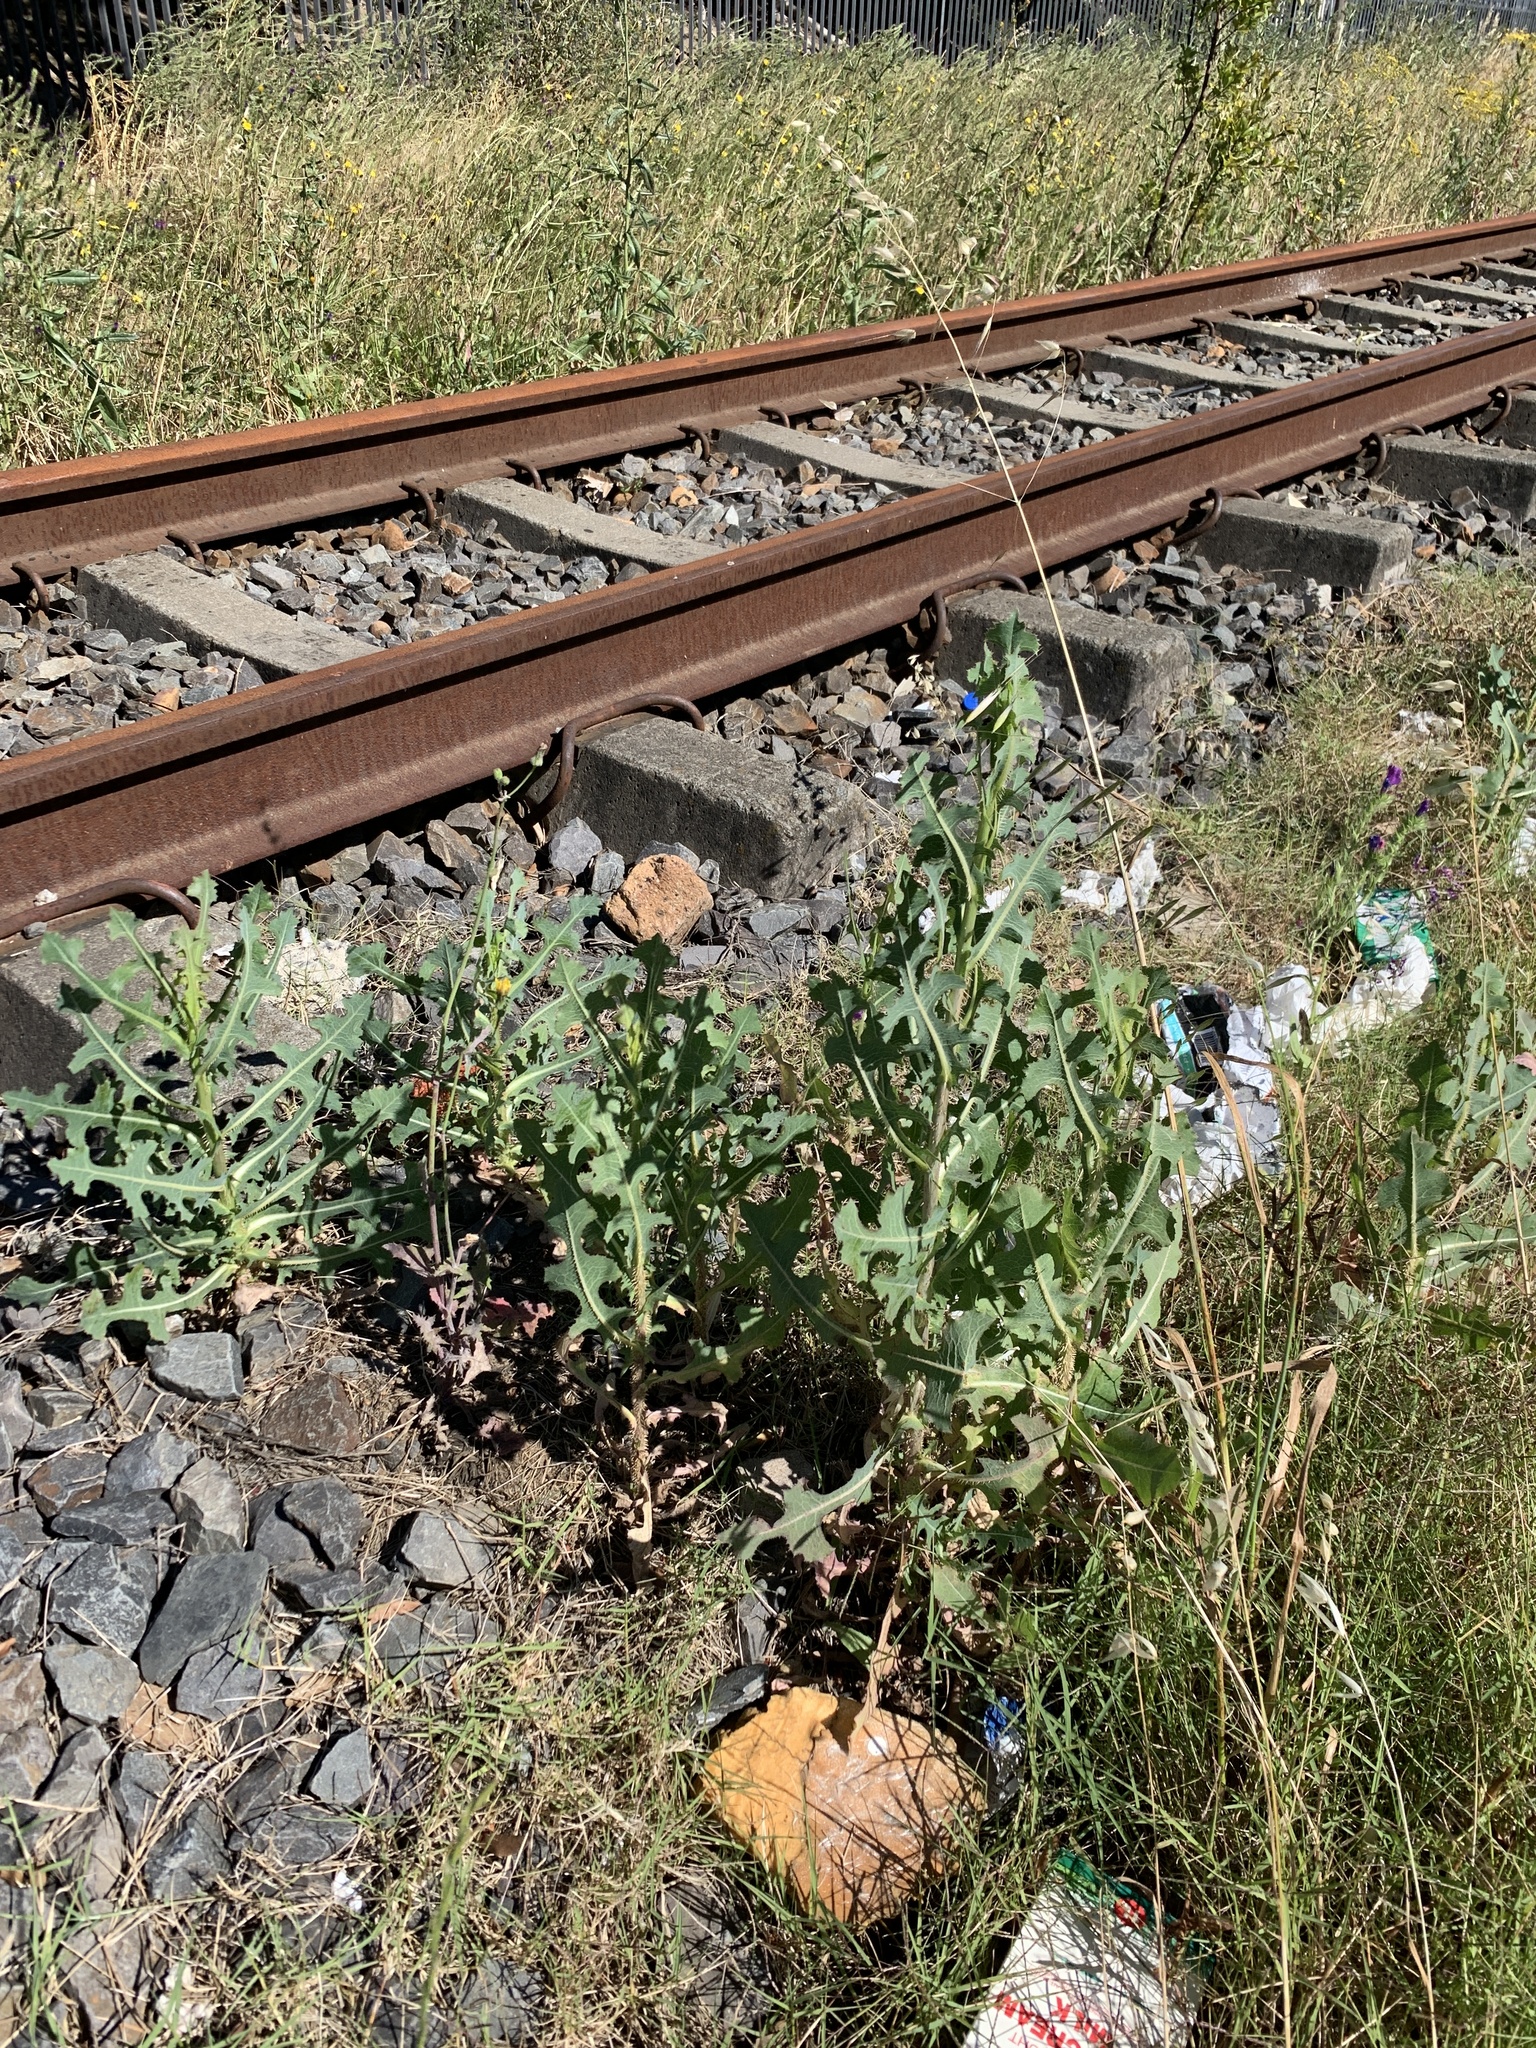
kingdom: Plantae
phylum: Tracheophyta
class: Magnoliopsida
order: Asterales
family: Asteraceae
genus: Lactuca
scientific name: Lactuca serriola
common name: Prickly lettuce
